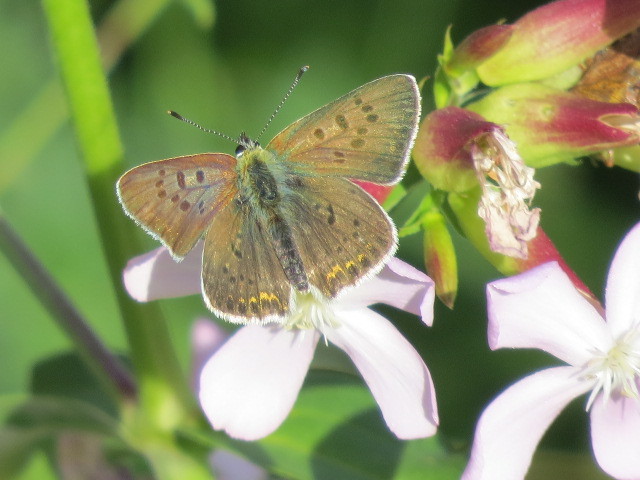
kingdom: Animalia
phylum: Arthropoda
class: Insecta
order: Lepidoptera
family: Lycaenidae
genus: Loweia
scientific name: Loweia tityrus
